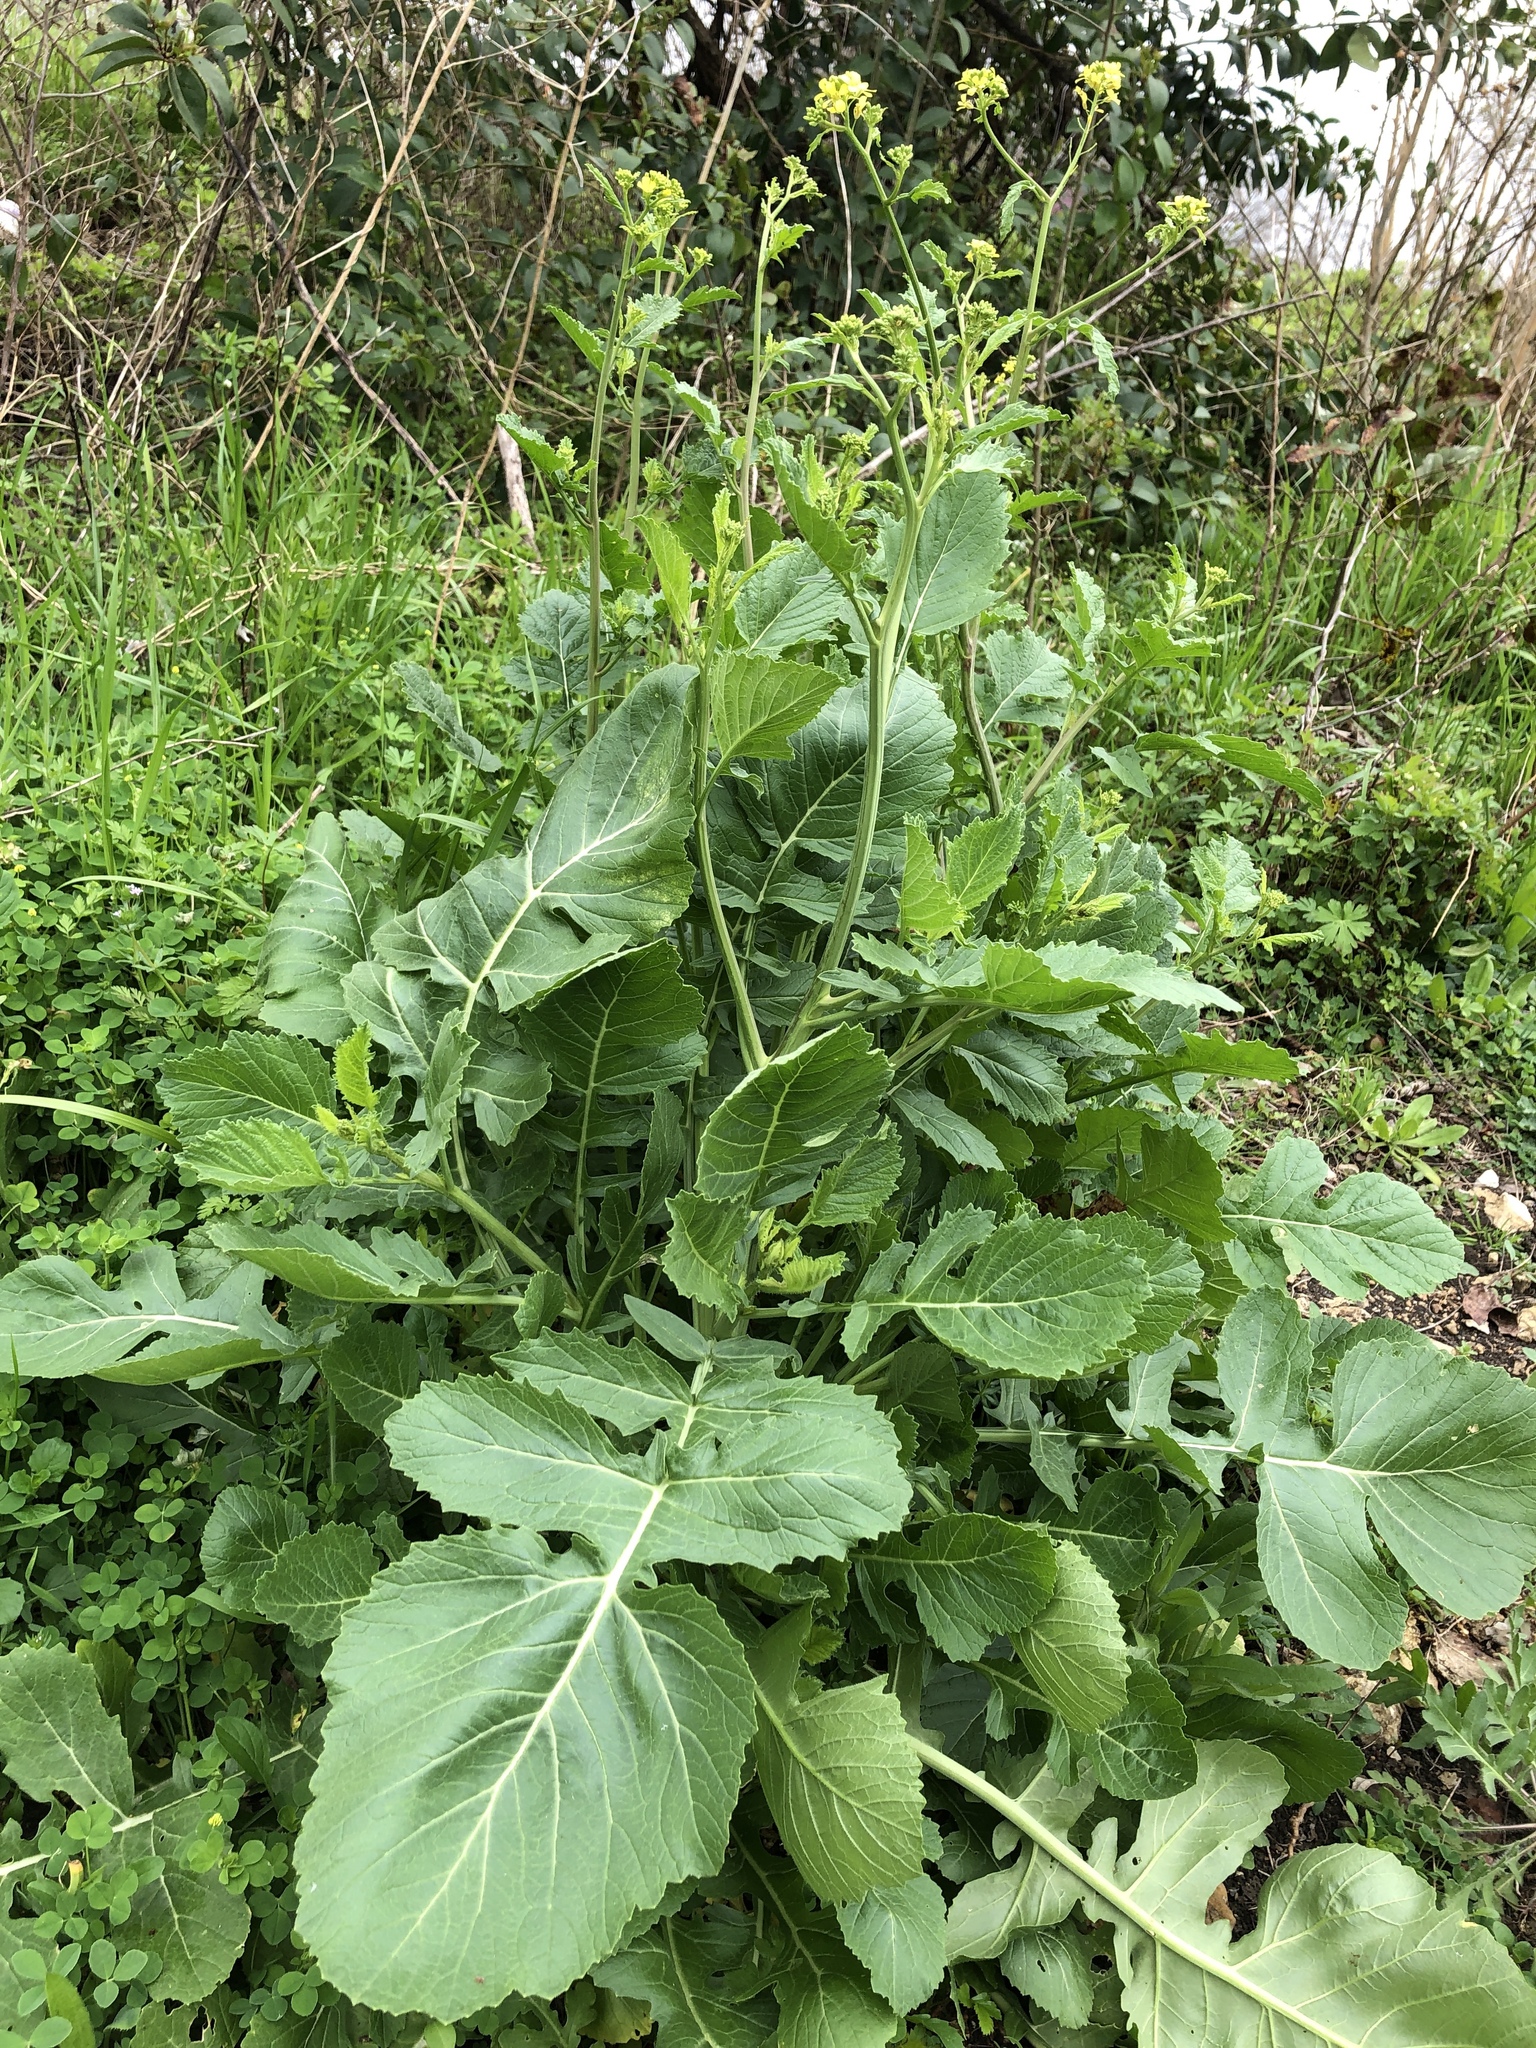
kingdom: Plantae
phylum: Tracheophyta
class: Magnoliopsida
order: Brassicales
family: Brassicaceae
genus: Rapistrum
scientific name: Rapistrum rugosum
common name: Annual bastardcabbage
